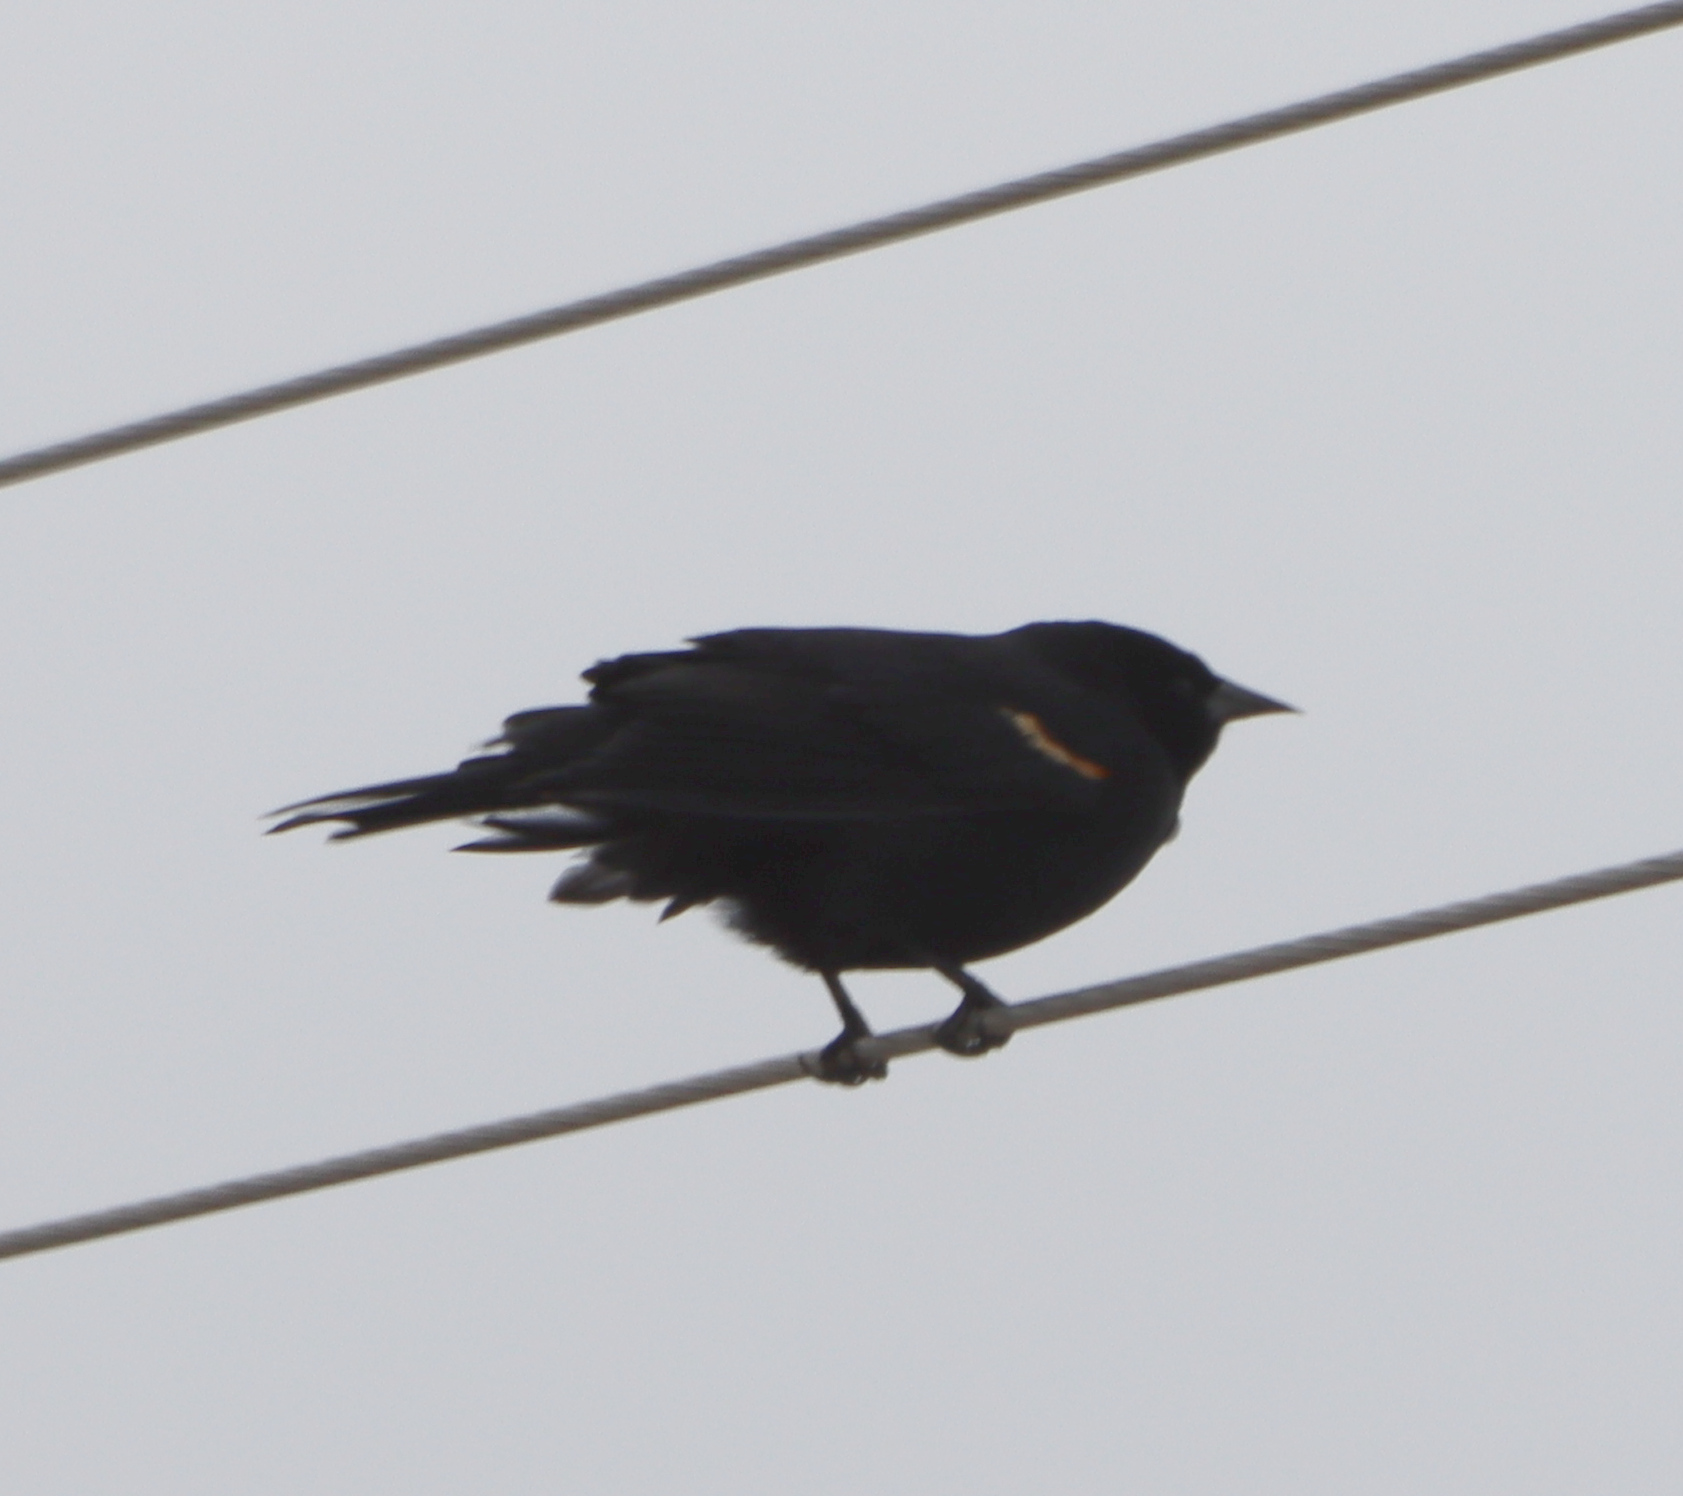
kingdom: Animalia
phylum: Chordata
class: Aves
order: Passeriformes
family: Icteridae
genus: Agelaius
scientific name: Agelaius phoeniceus
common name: Red-winged blackbird
